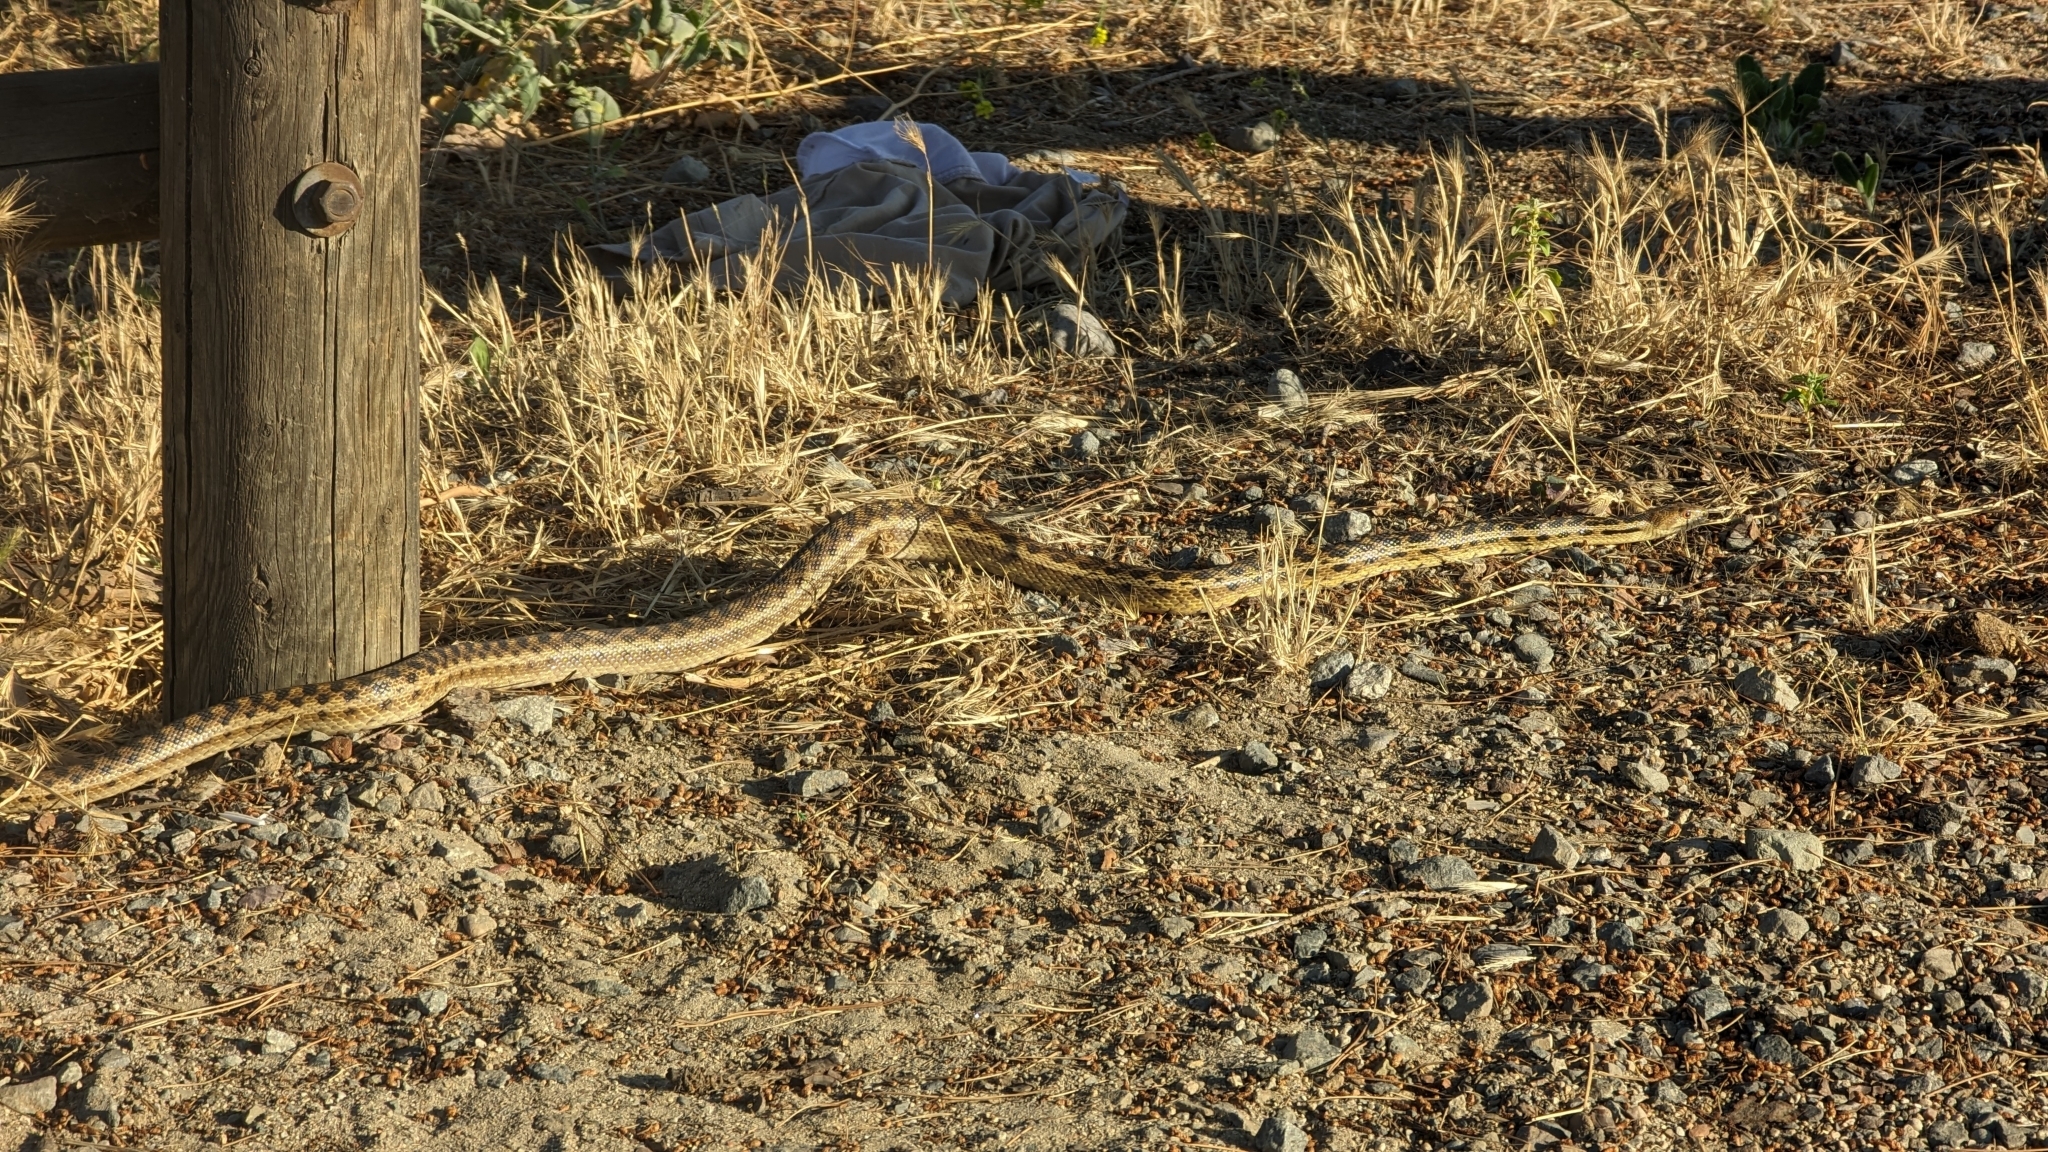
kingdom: Animalia
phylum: Chordata
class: Squamata
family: Colubridae
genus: Pituophis
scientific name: Pituophis catenifer
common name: Gopher snake
